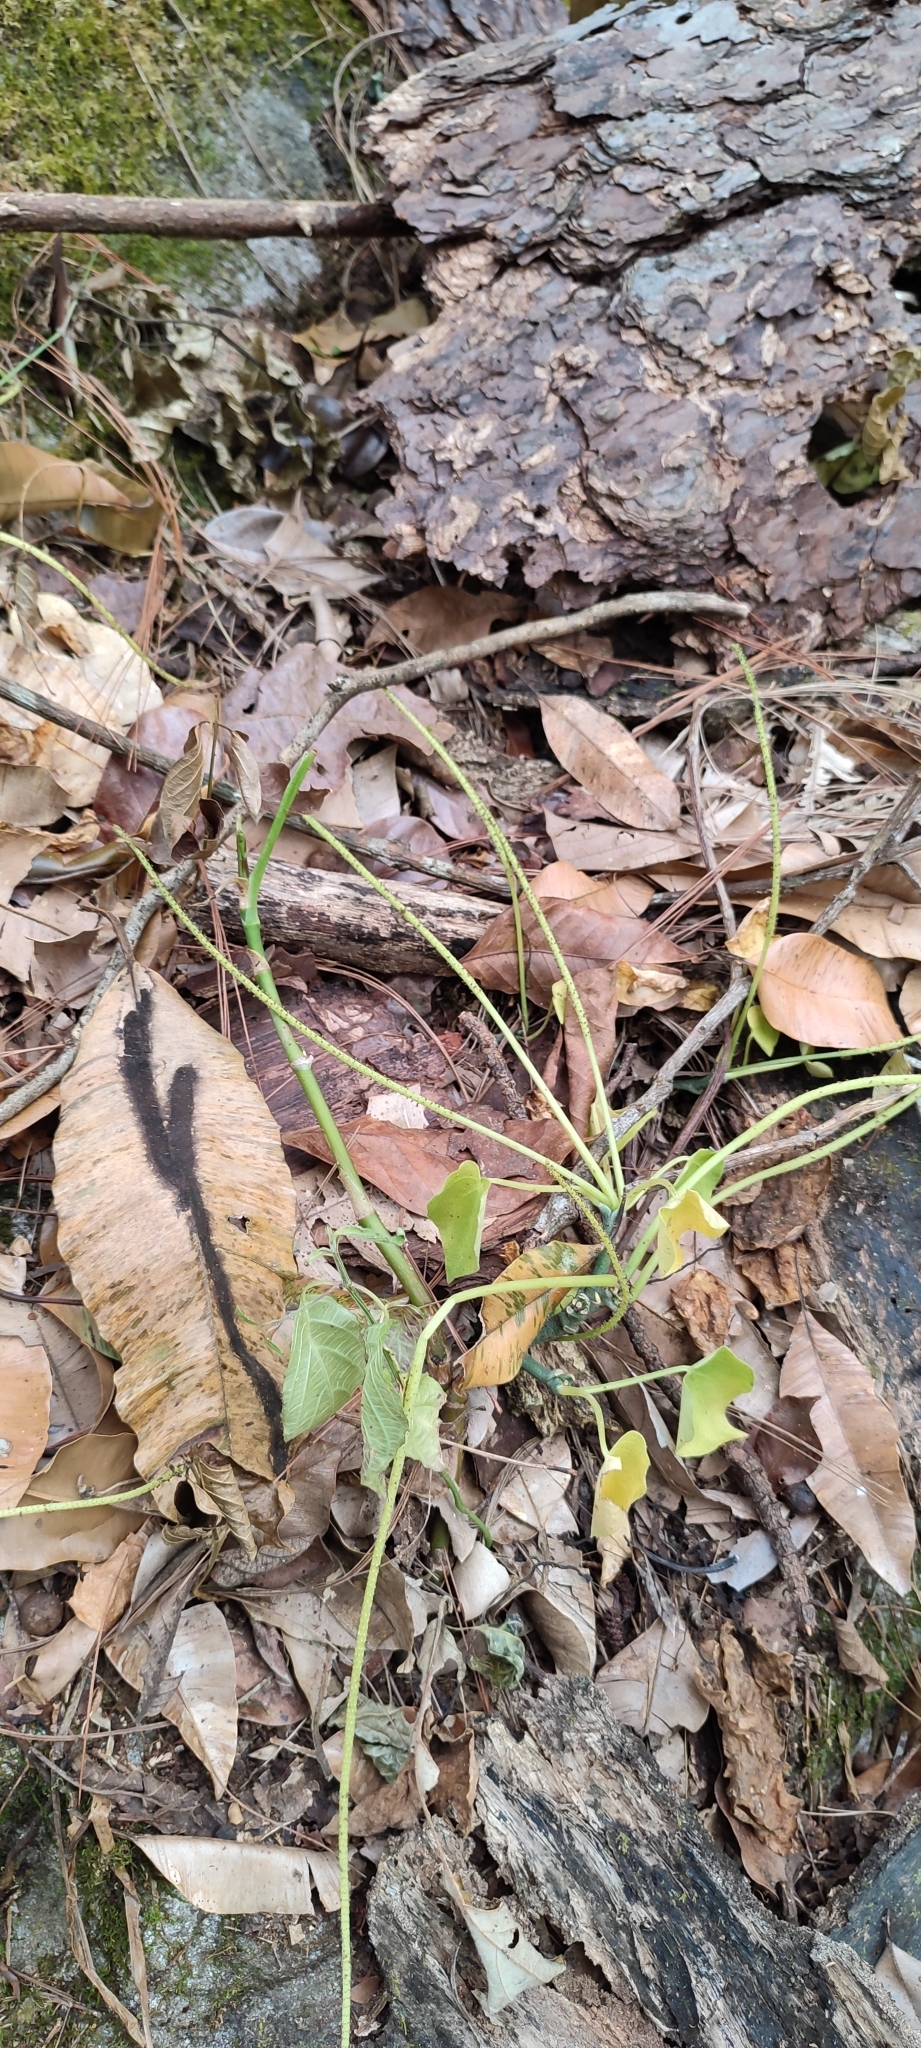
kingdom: Plantae
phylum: Tracheophyta
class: Magnoliopsida
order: Piperales
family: Piperaceae
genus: Peperomia
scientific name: Peperomia lanceolatopeltata
